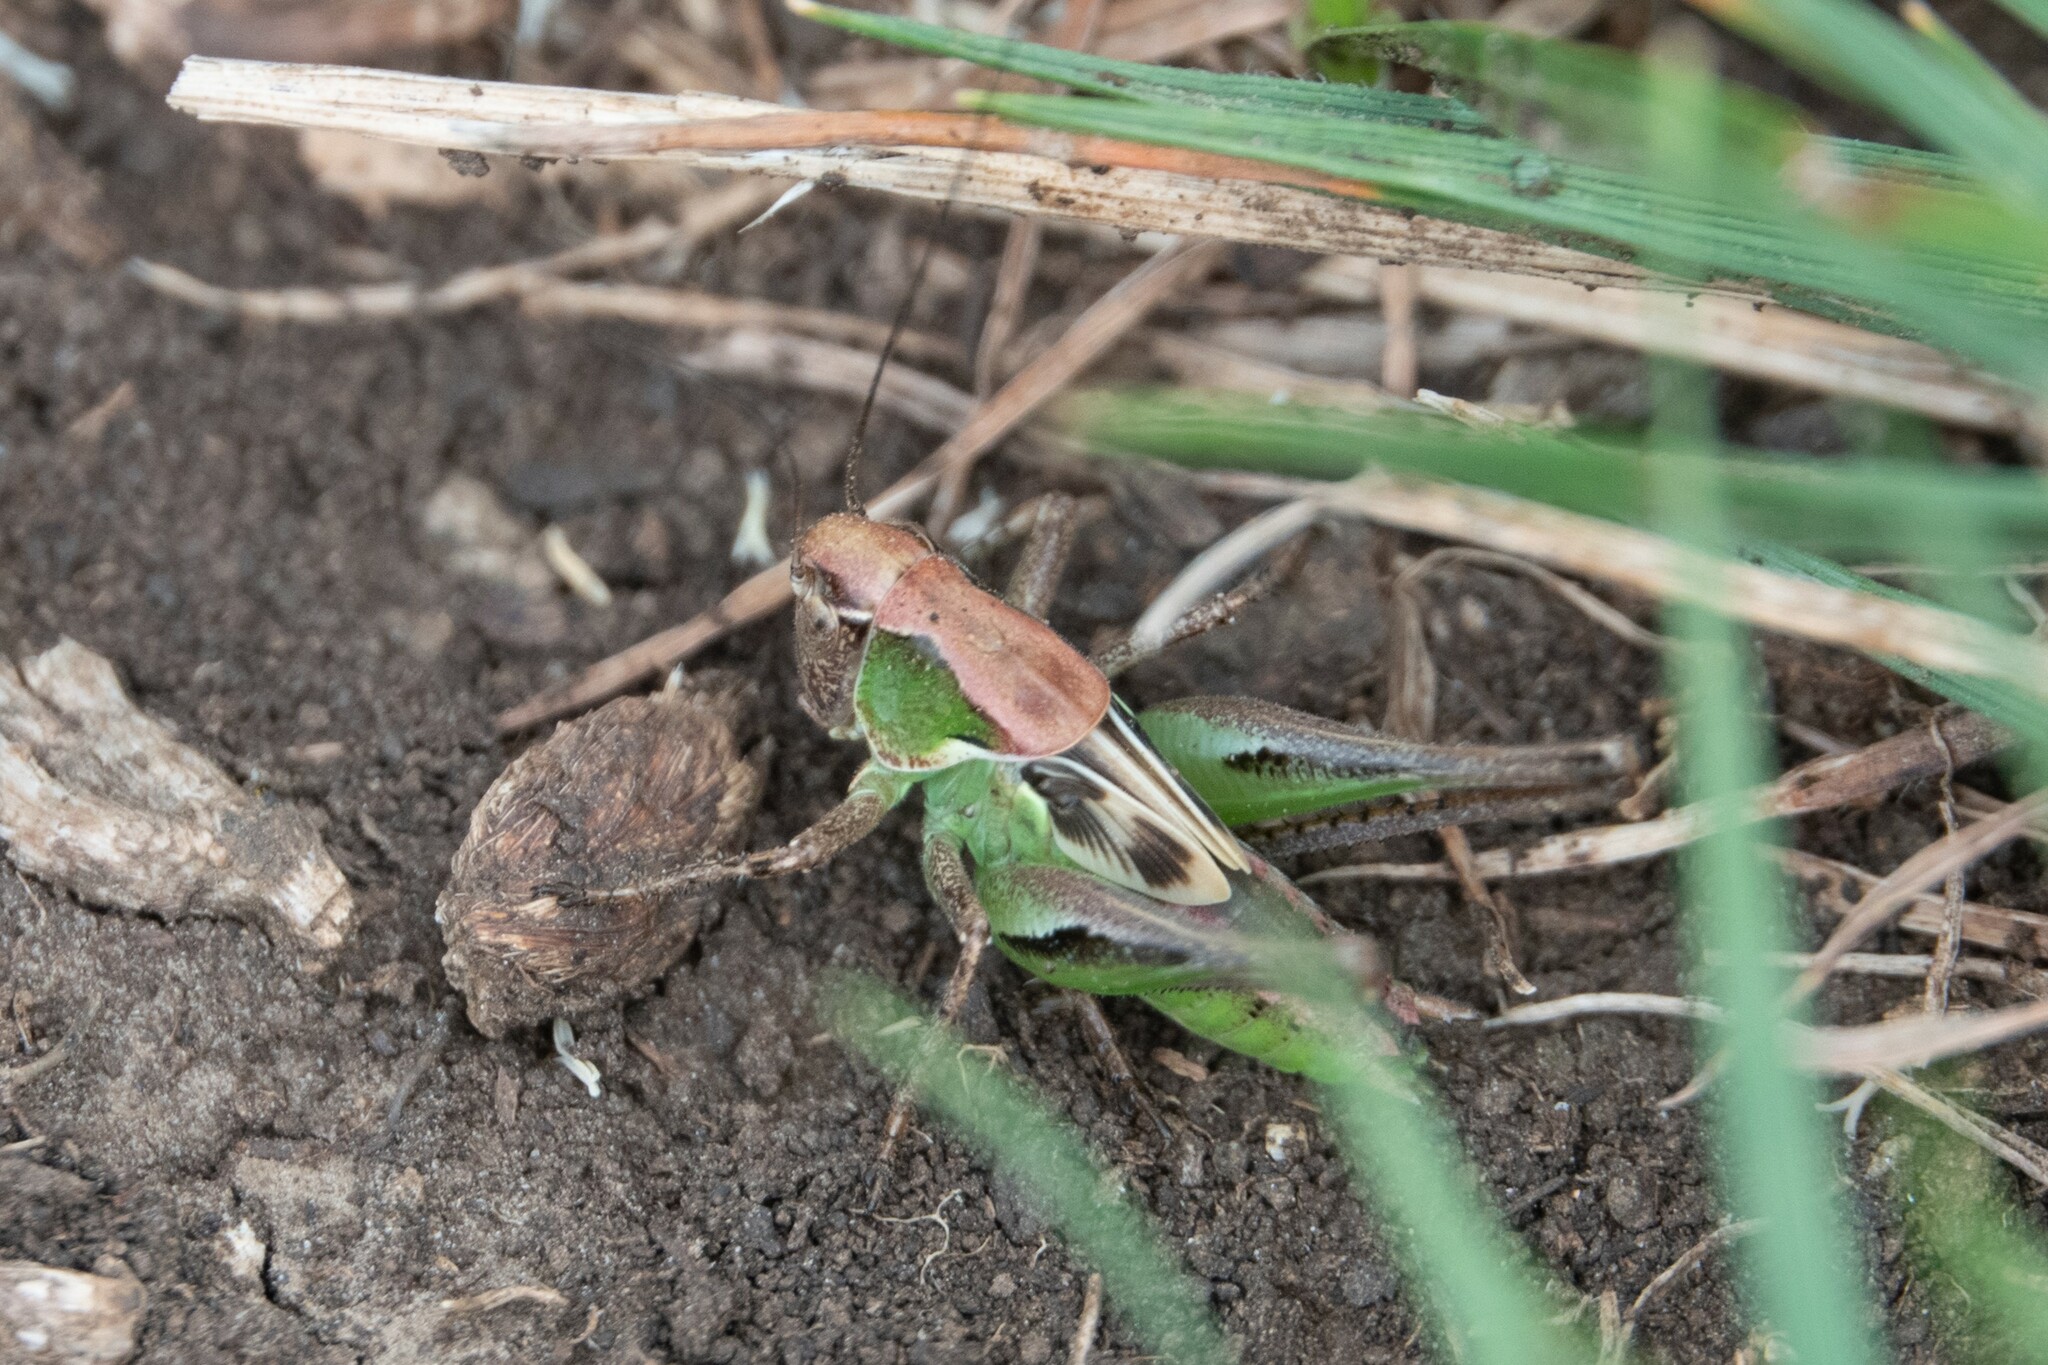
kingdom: Animalia
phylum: Arthropoda
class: Insecta
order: Orthoptera
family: Tettigoniidae
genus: Platycleis
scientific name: Platycleis albopunctata
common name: Grey bush-cricket
